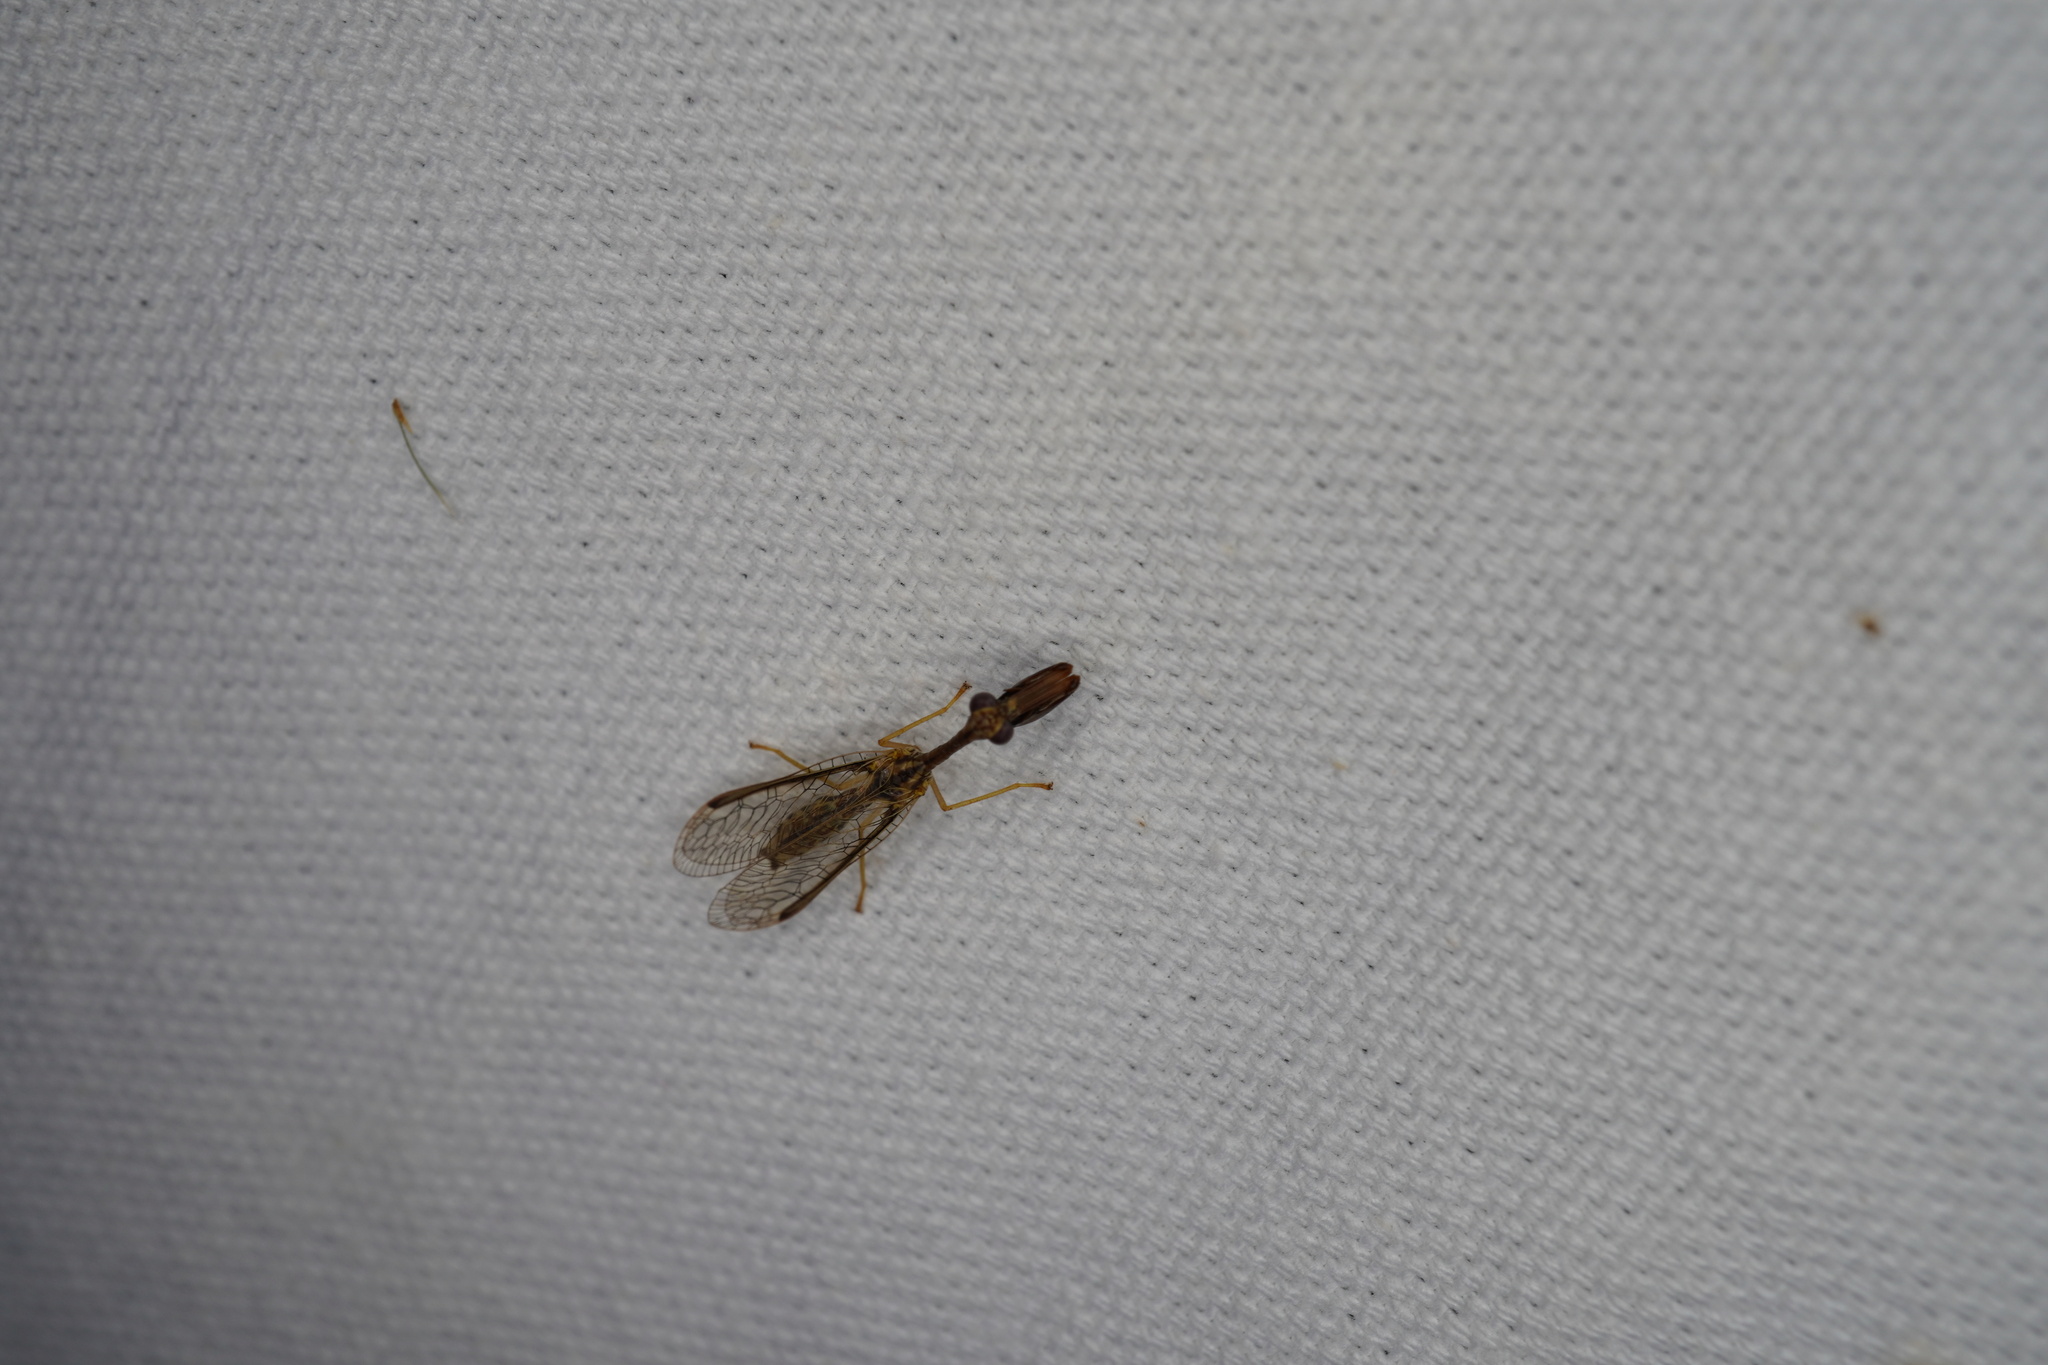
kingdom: Animalia
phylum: Arthropoda
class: Insecta
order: Neuroptera
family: Mantispidae
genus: Dicromantispa
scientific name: Dicromantispa sayi
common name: Say's mantidfly
